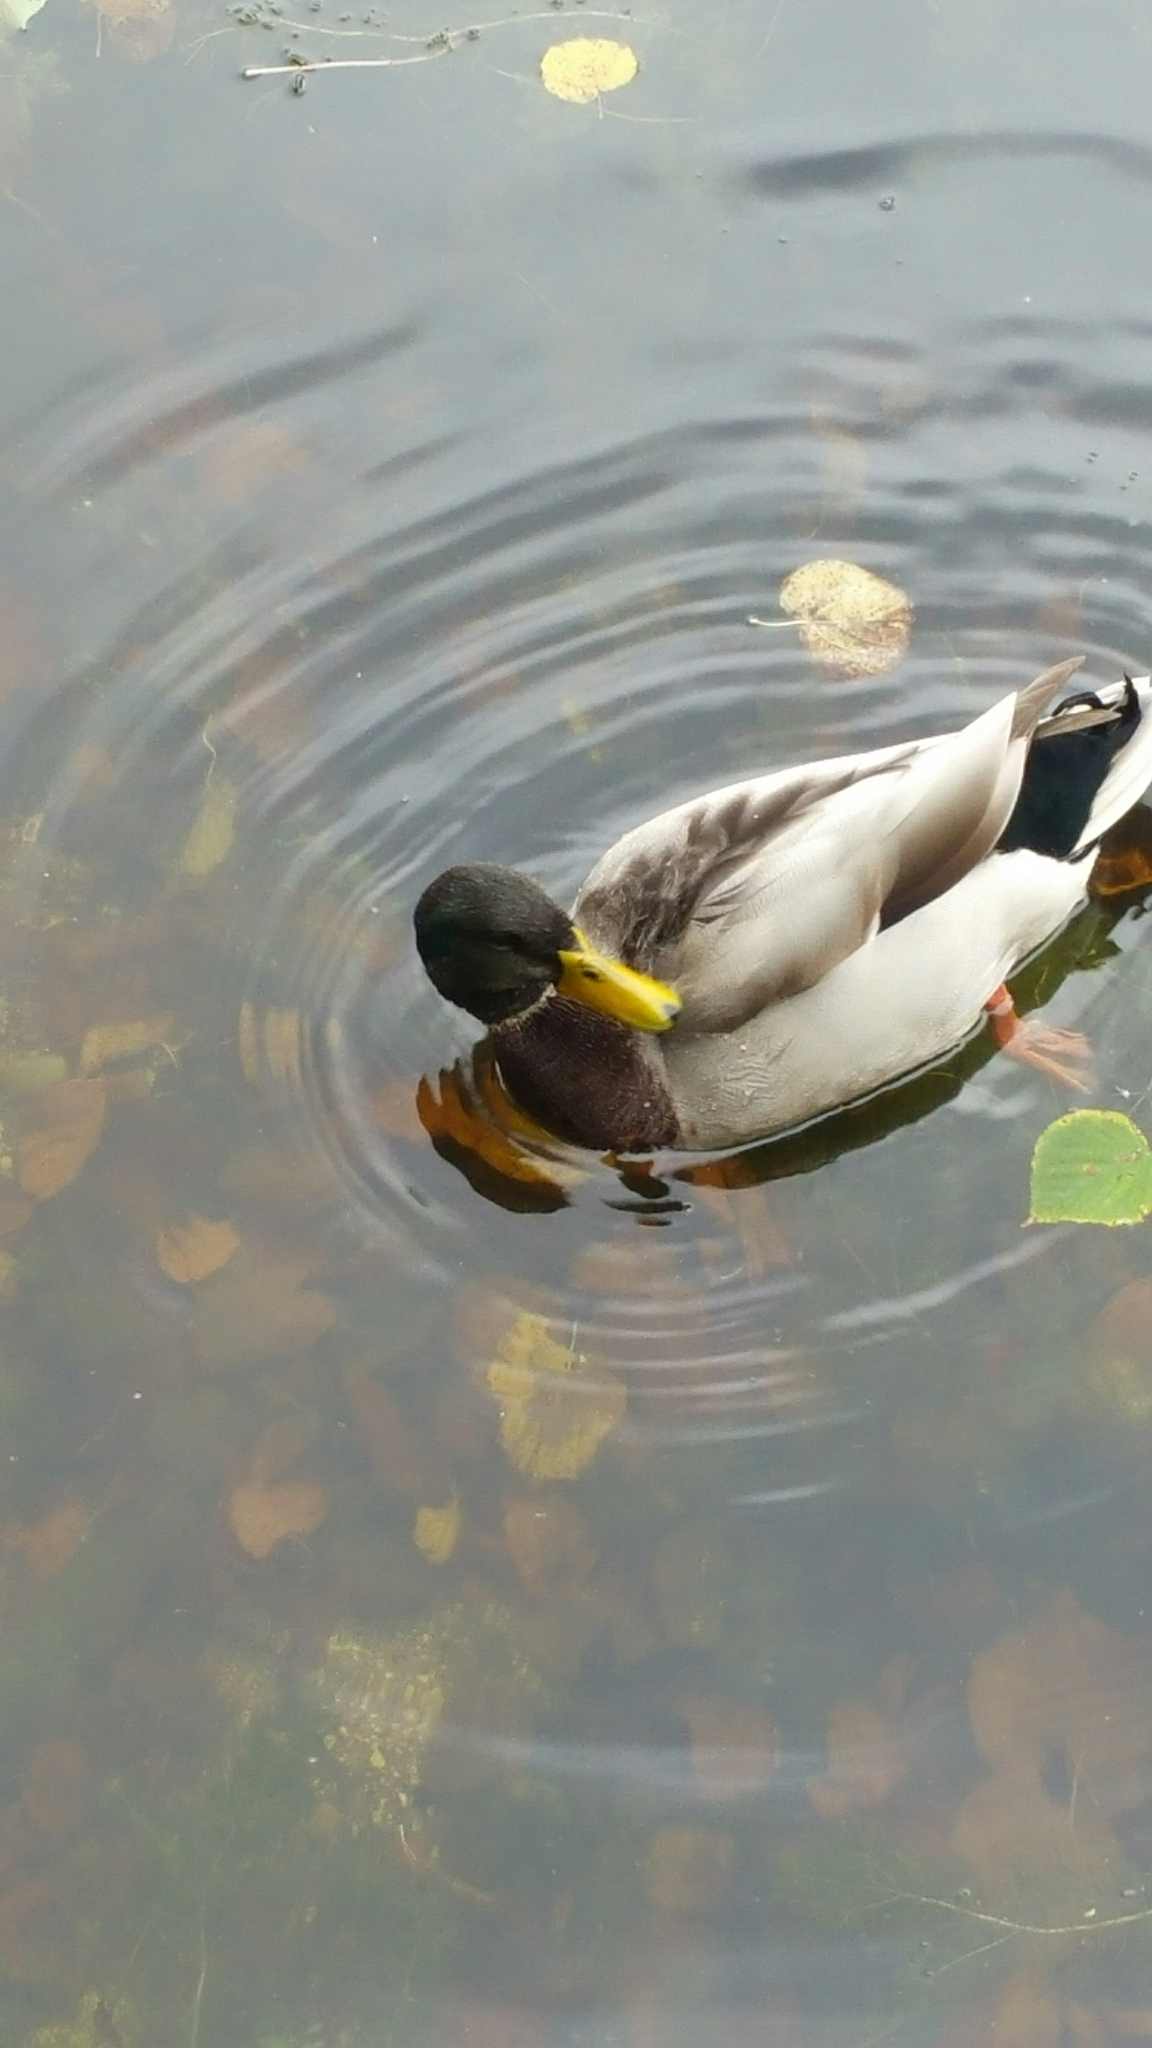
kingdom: Animalia
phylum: Chordata
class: Aves
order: Anseriformes
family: Anatidae
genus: Anas
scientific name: Anas platyrhynchos
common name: Mallard
